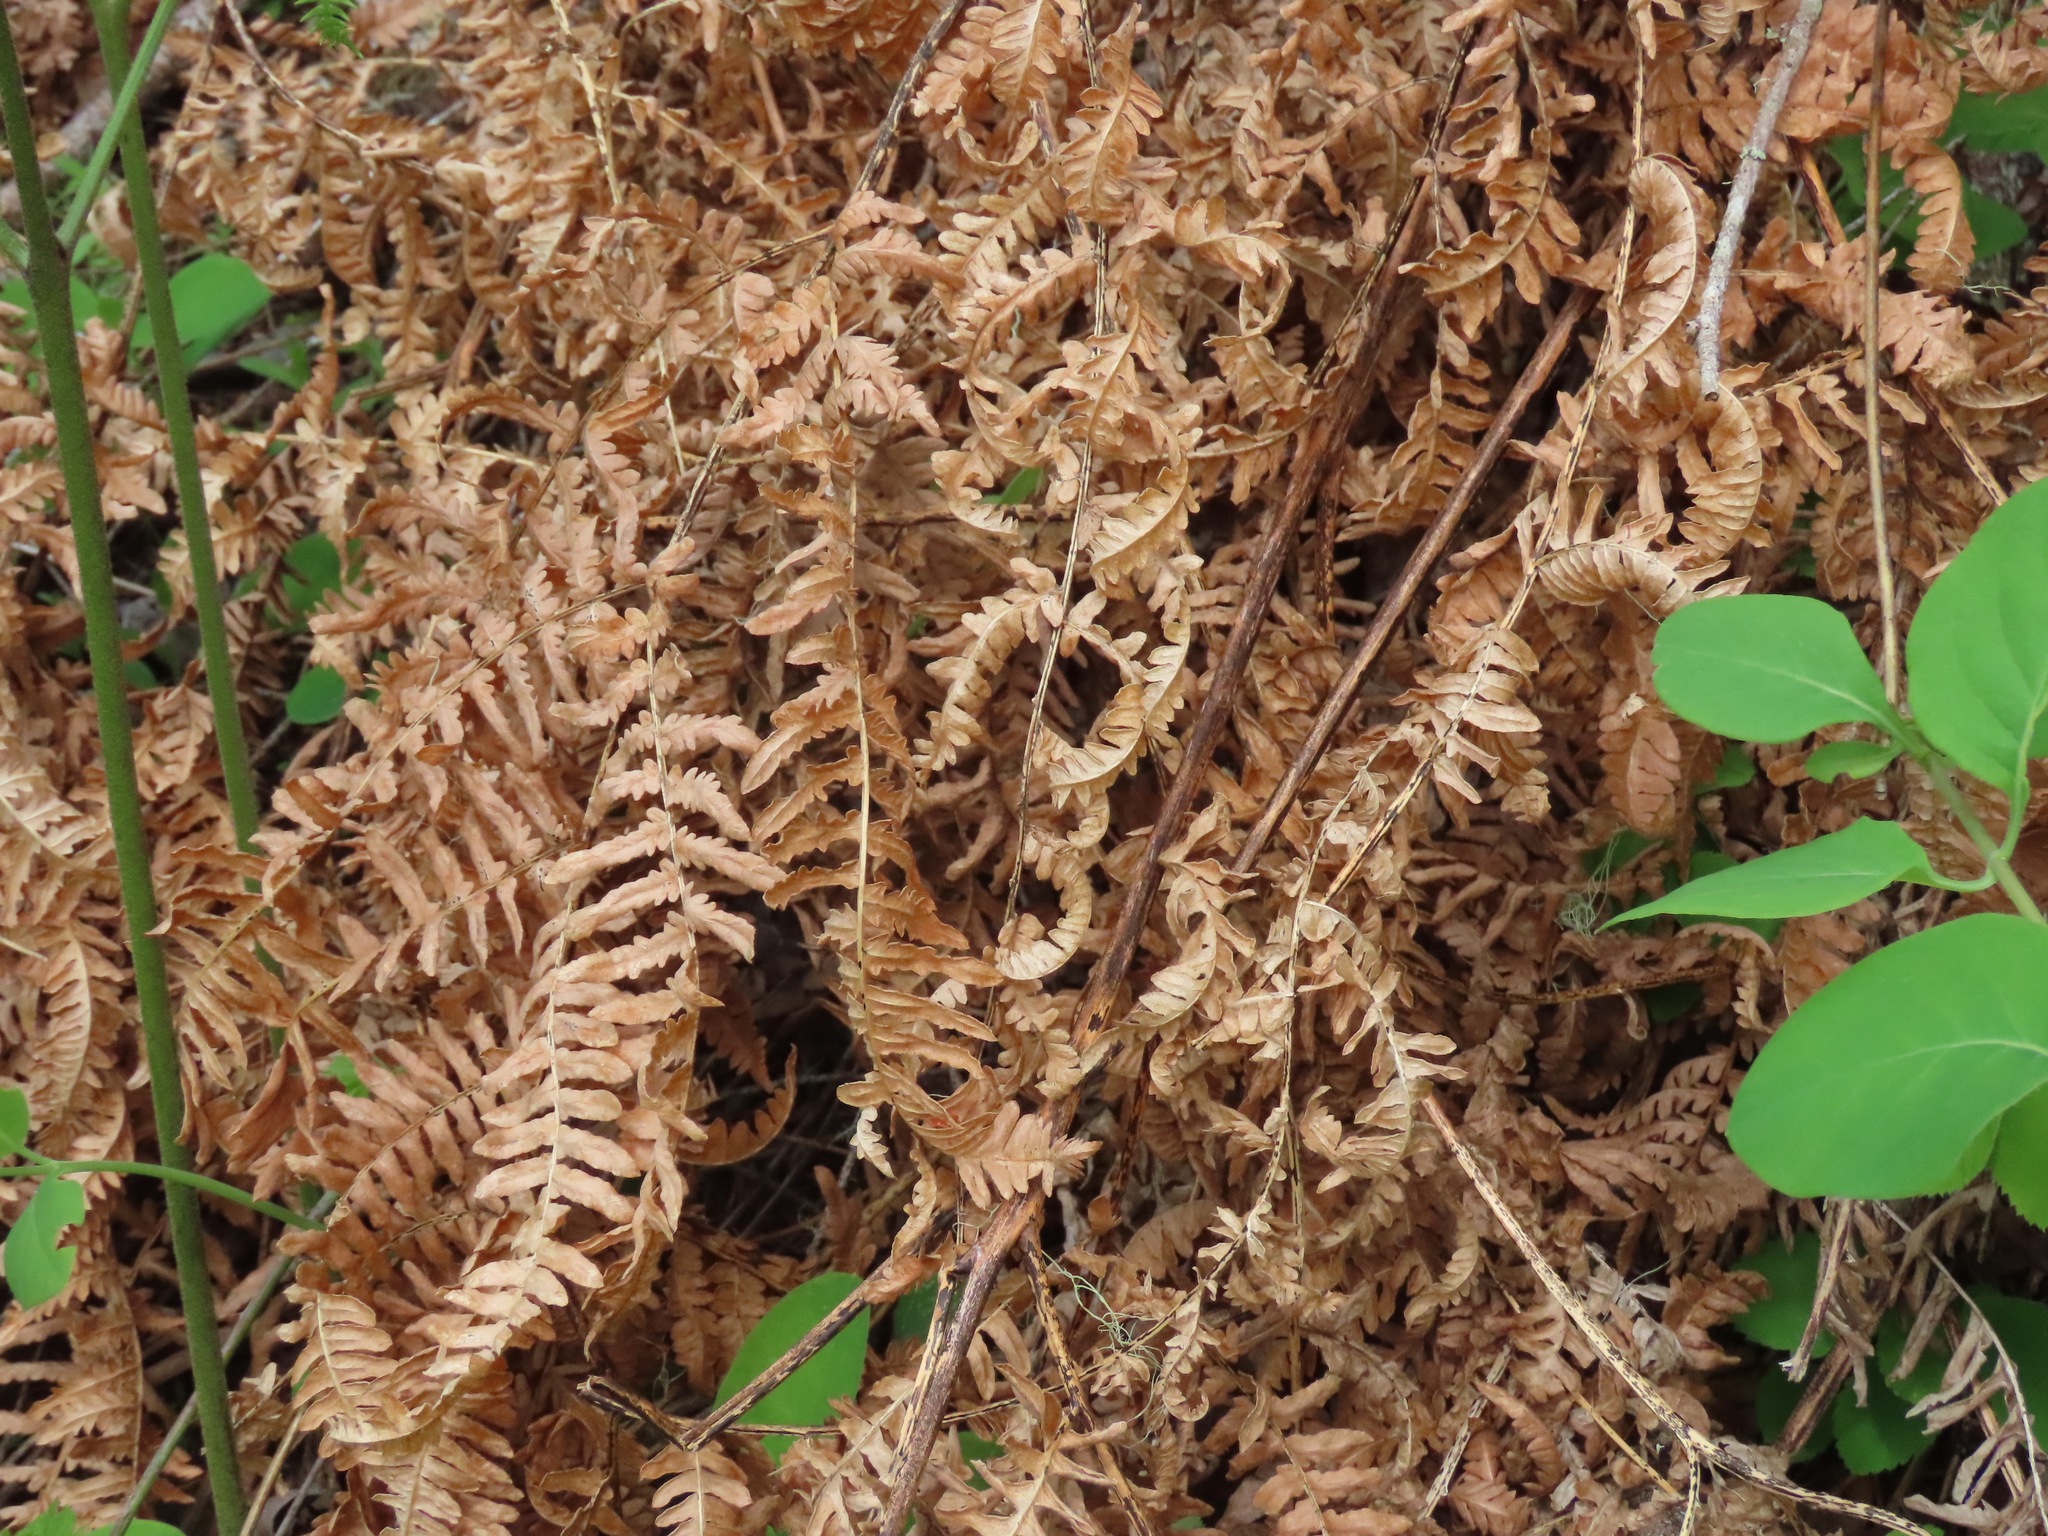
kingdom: Plantae
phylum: Tracheophyta
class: Polypodiopsida
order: Polypodiales
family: Dennstaedtiaceae
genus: Pteridium
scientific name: Pteridium aquilinum
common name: Bracken
